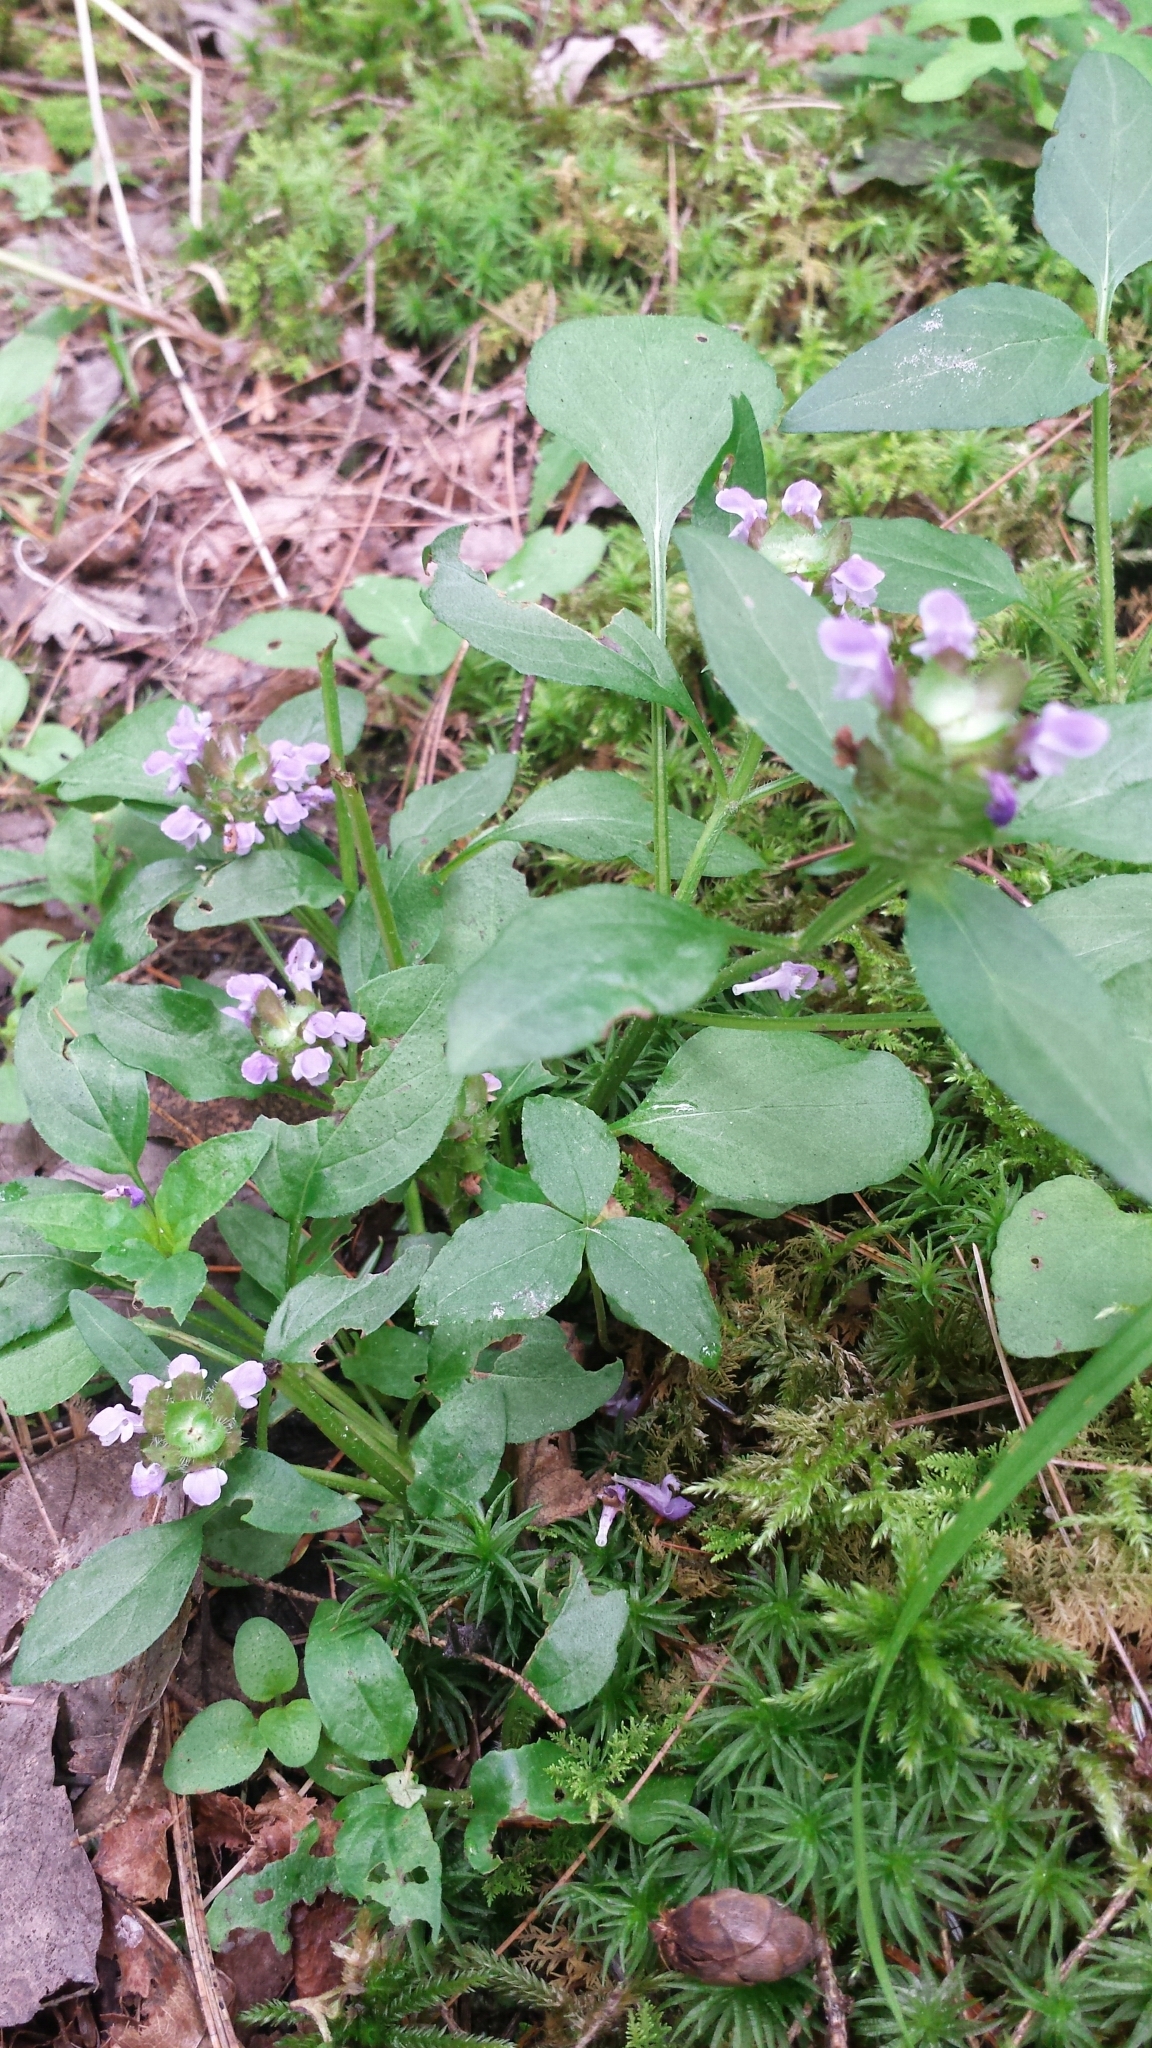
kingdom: Plantae
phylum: Tracheophyta
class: Magnoliopsida
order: Lamiales
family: Lamiaceae
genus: Prunella
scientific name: Prunella vulgaris
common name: Heal-all
